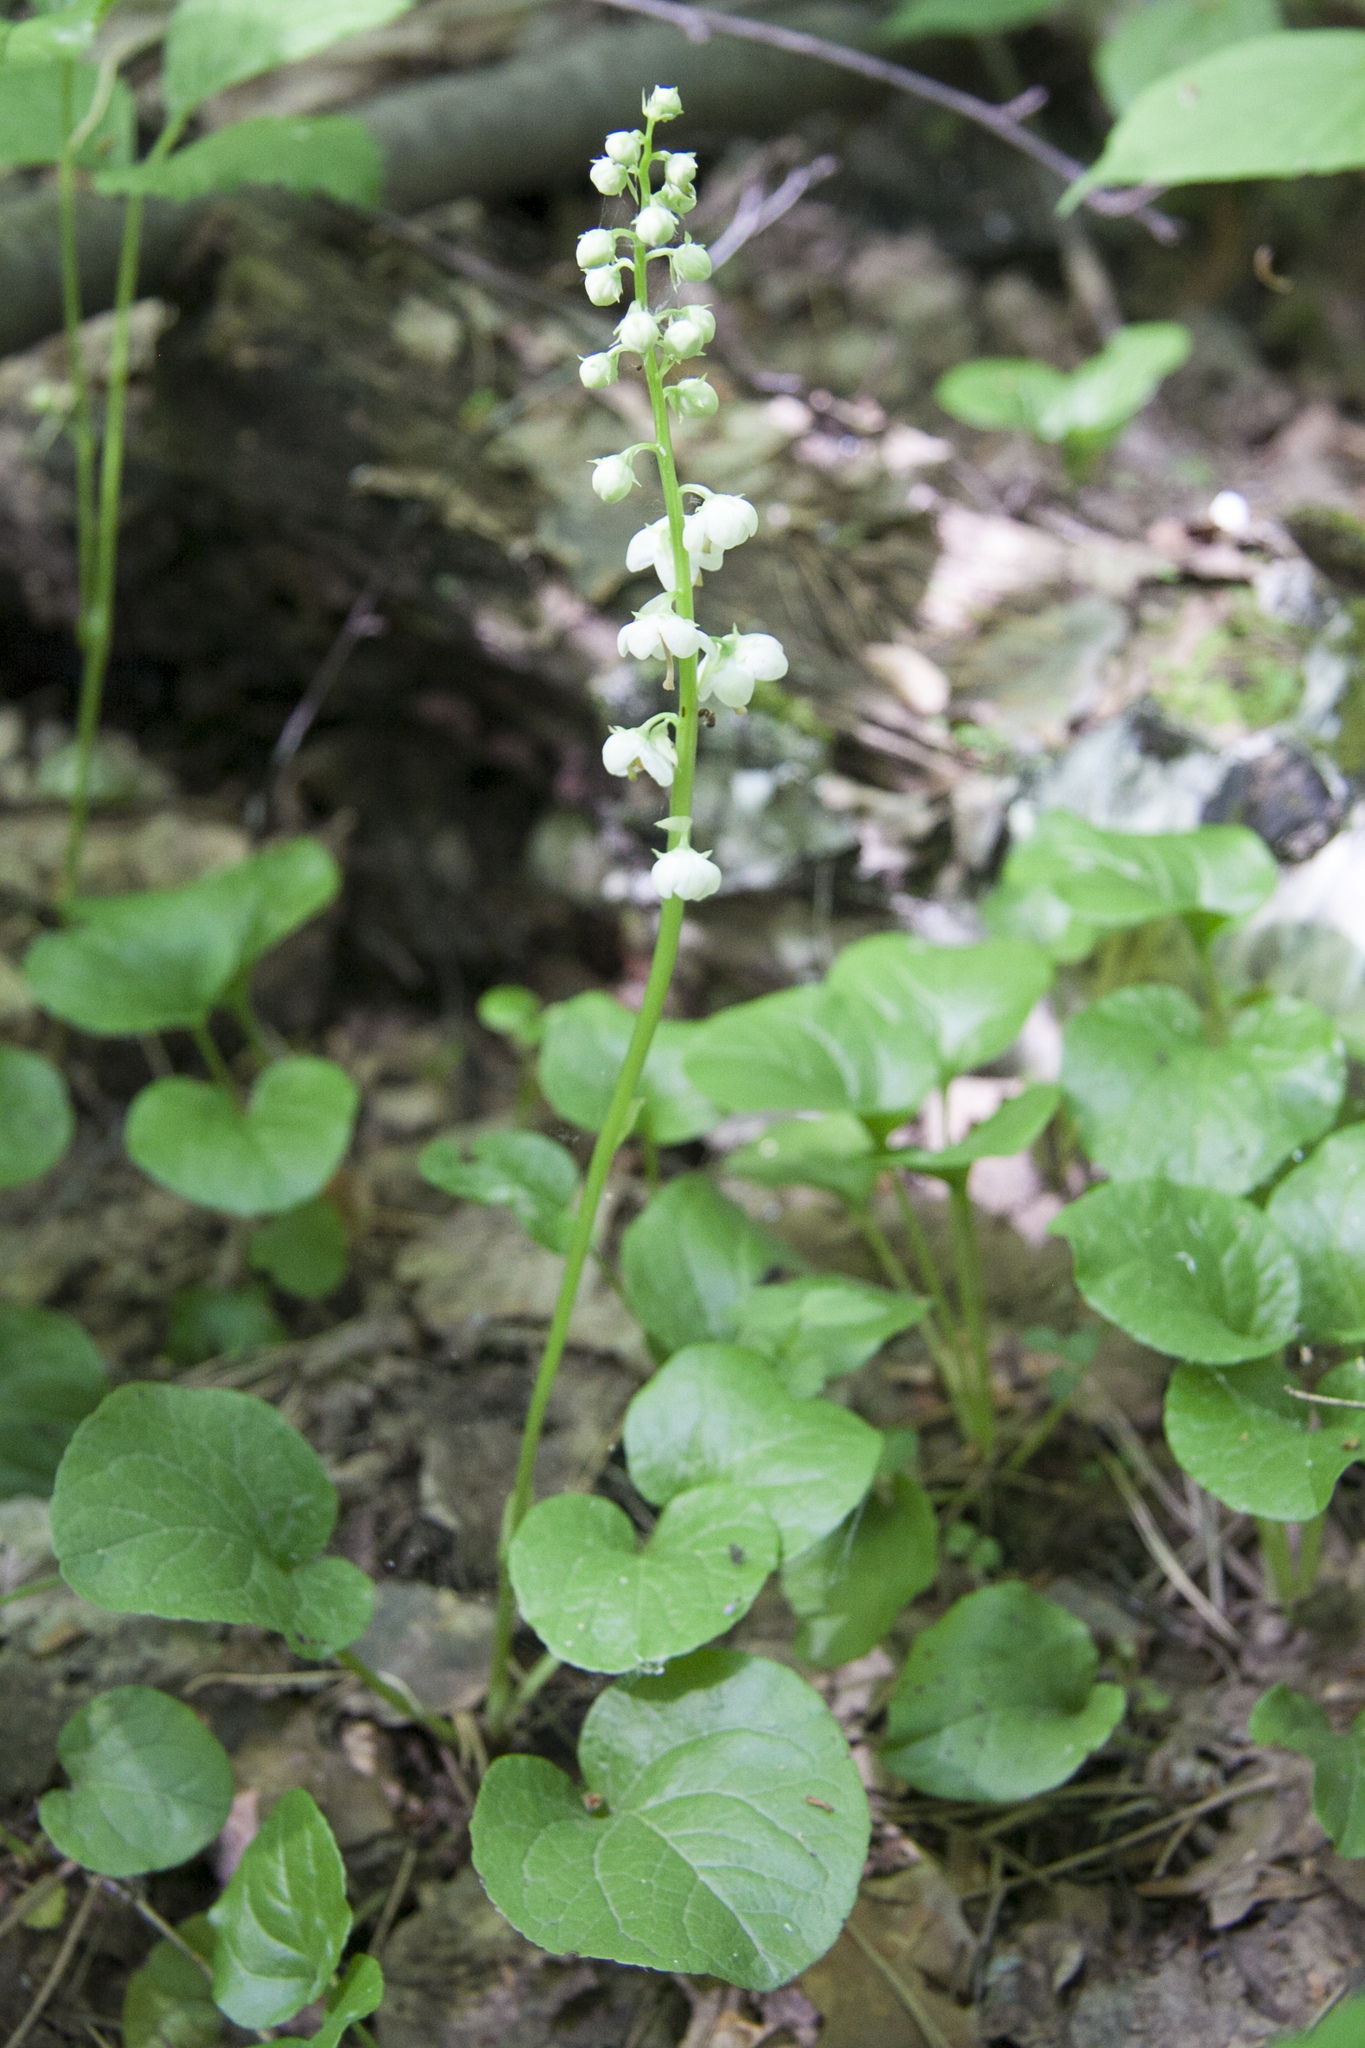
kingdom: Plantae
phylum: Tracheophyta
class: Magnoliopsida
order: Ericales
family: Ericaceae
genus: Pyrola
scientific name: Pyrola rotundifolia
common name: Round-leaved wintergreen
